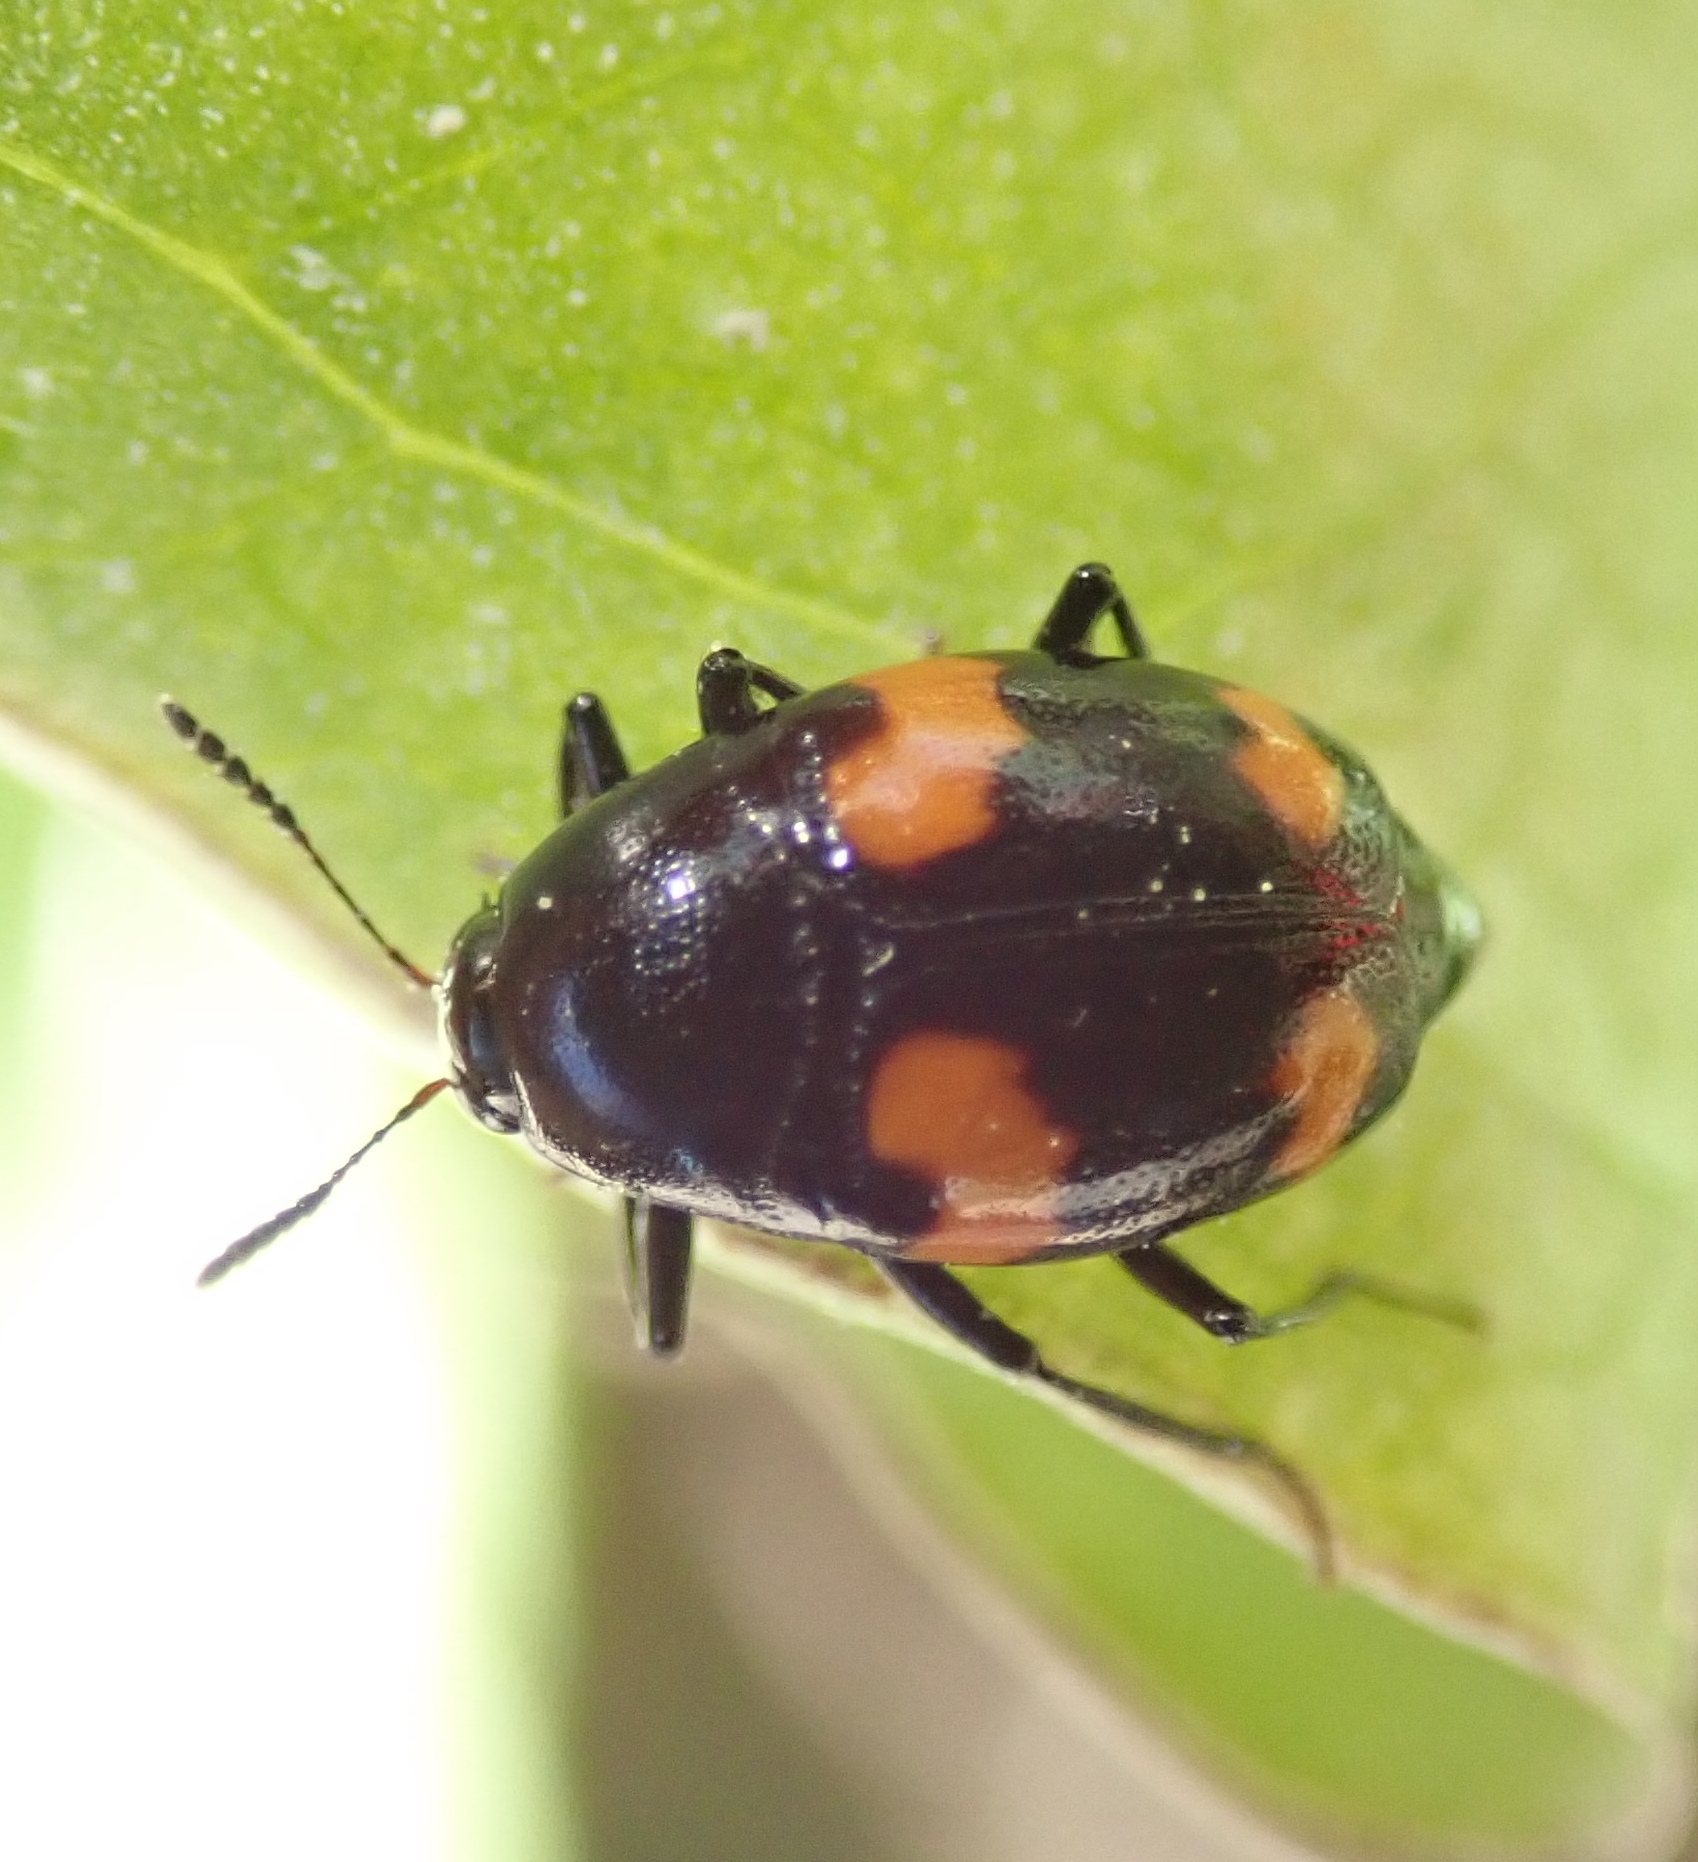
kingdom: Animalia
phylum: Arthropoda
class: Insecta
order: Coleoptera
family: Staphylinidae
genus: Scaphidium
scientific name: Scaphidium quadrimaculatum
